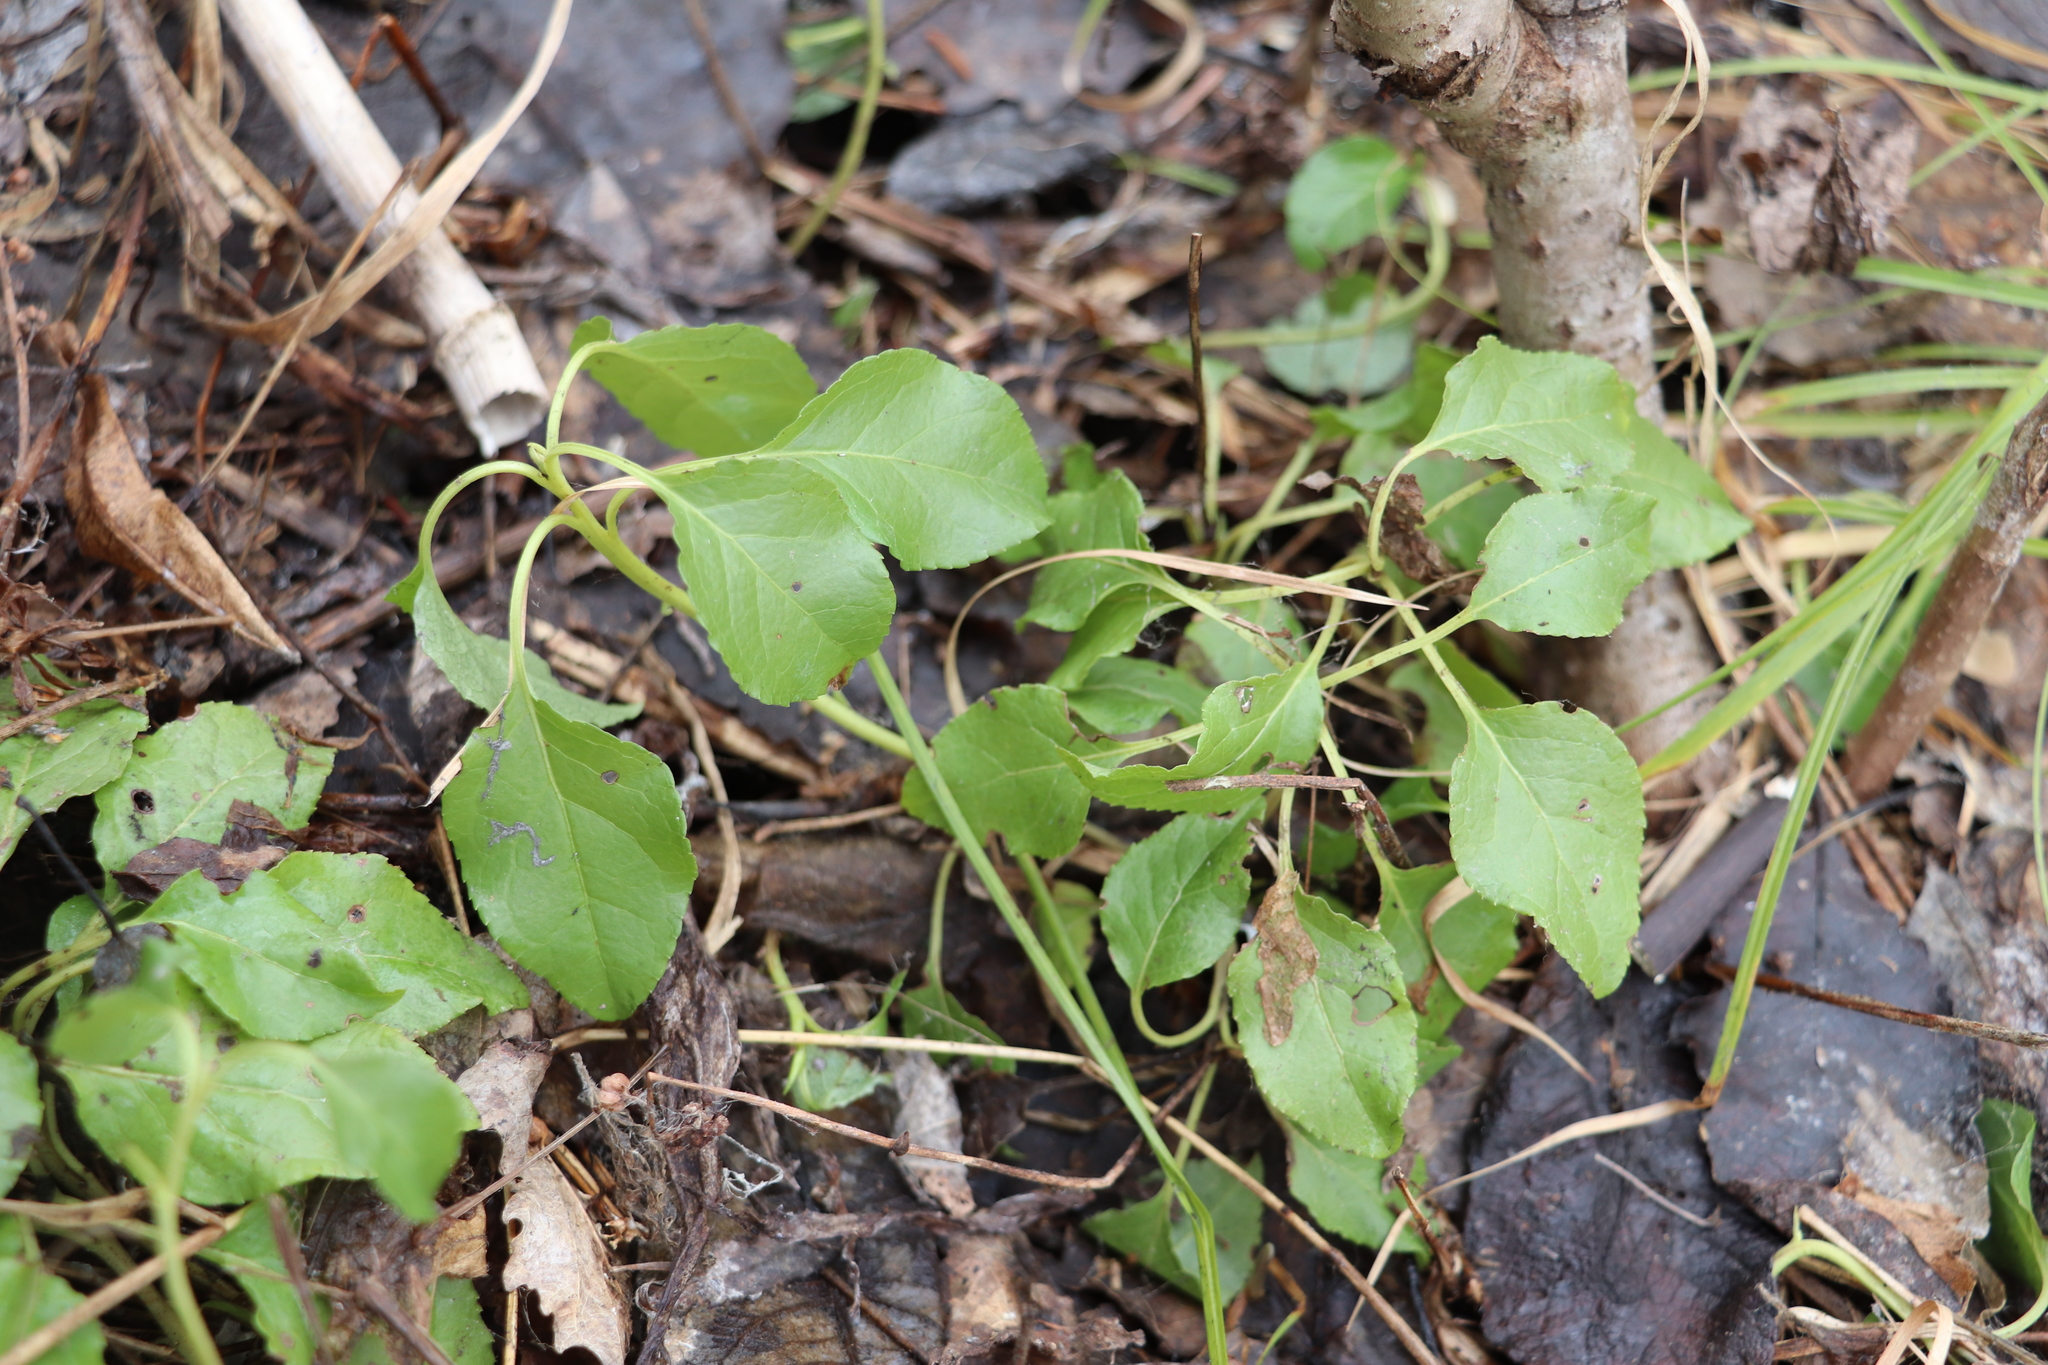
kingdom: Plantae
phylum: Tracheophyta
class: Magnoliopsida
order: Ericales
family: Ericaceae
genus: Orthilia
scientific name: Orthilia secunda
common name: One-sided orthilia
